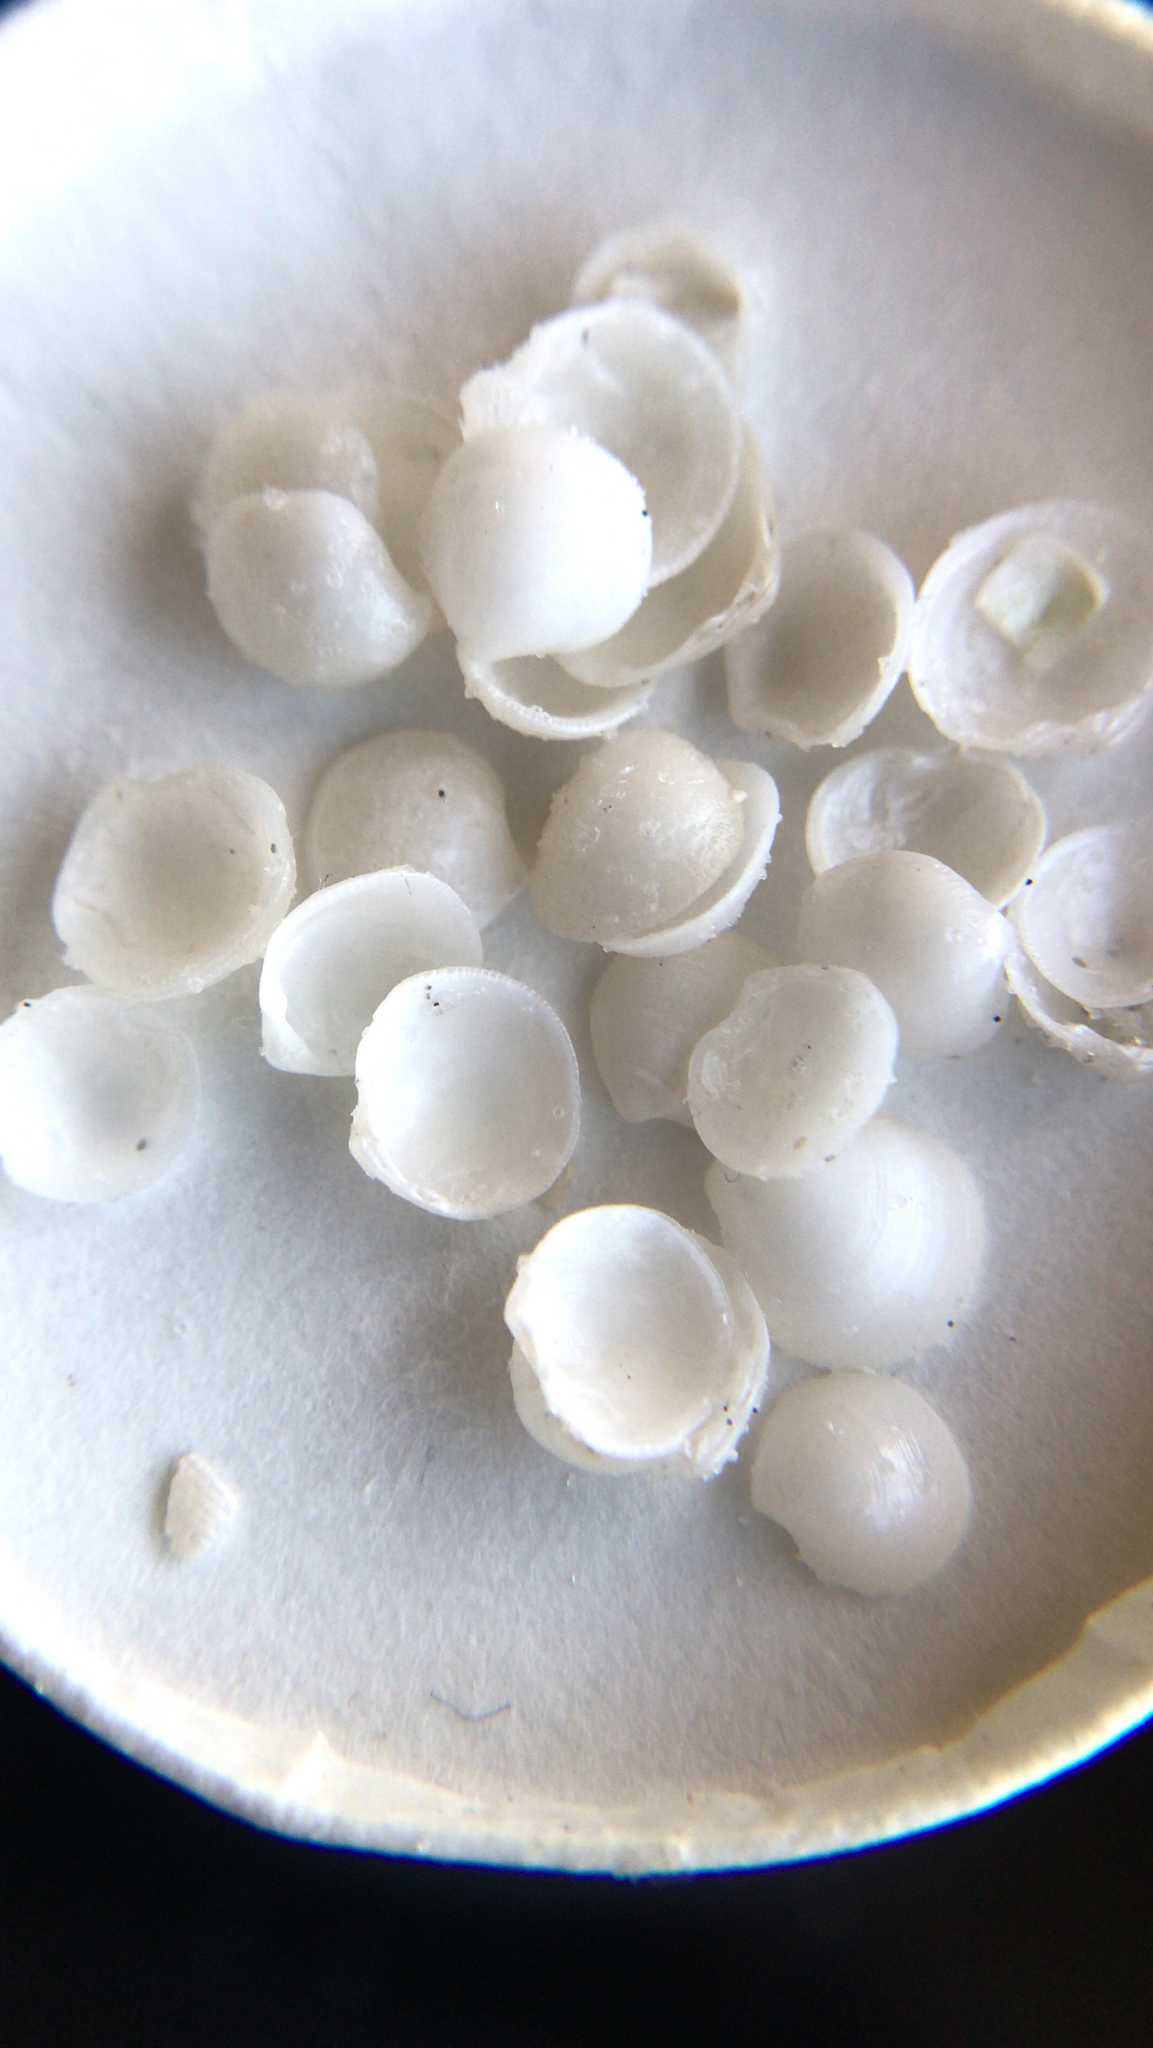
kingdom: Animalia
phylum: Mollusca
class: Bivalvia
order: Lucinida
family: Lucinidae
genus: Parvilucina
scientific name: Parvilucina crenella
